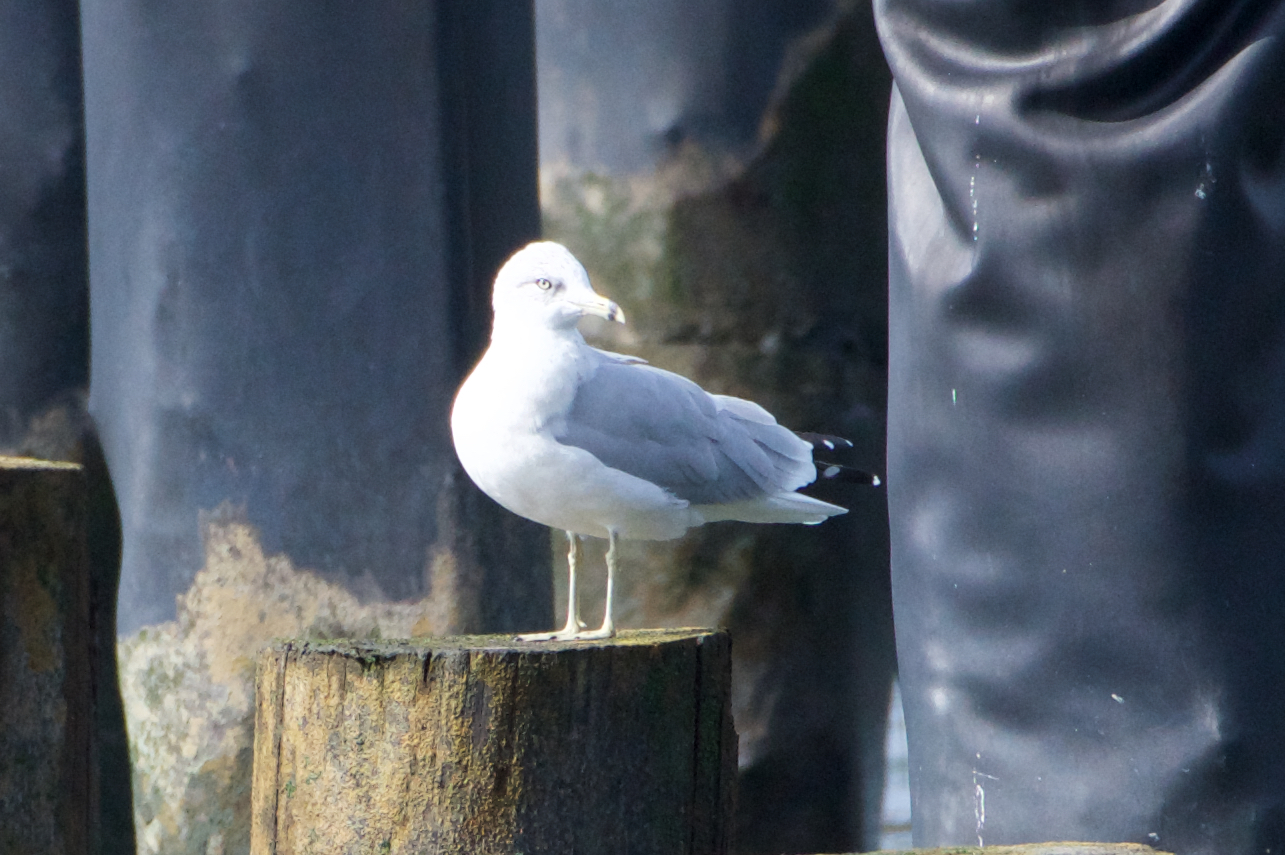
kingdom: Animalia
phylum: Chordata
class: Aves
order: Charadriiformes
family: Laridae
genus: Larus
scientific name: Larus delawarensis
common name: Ring-billed gull
